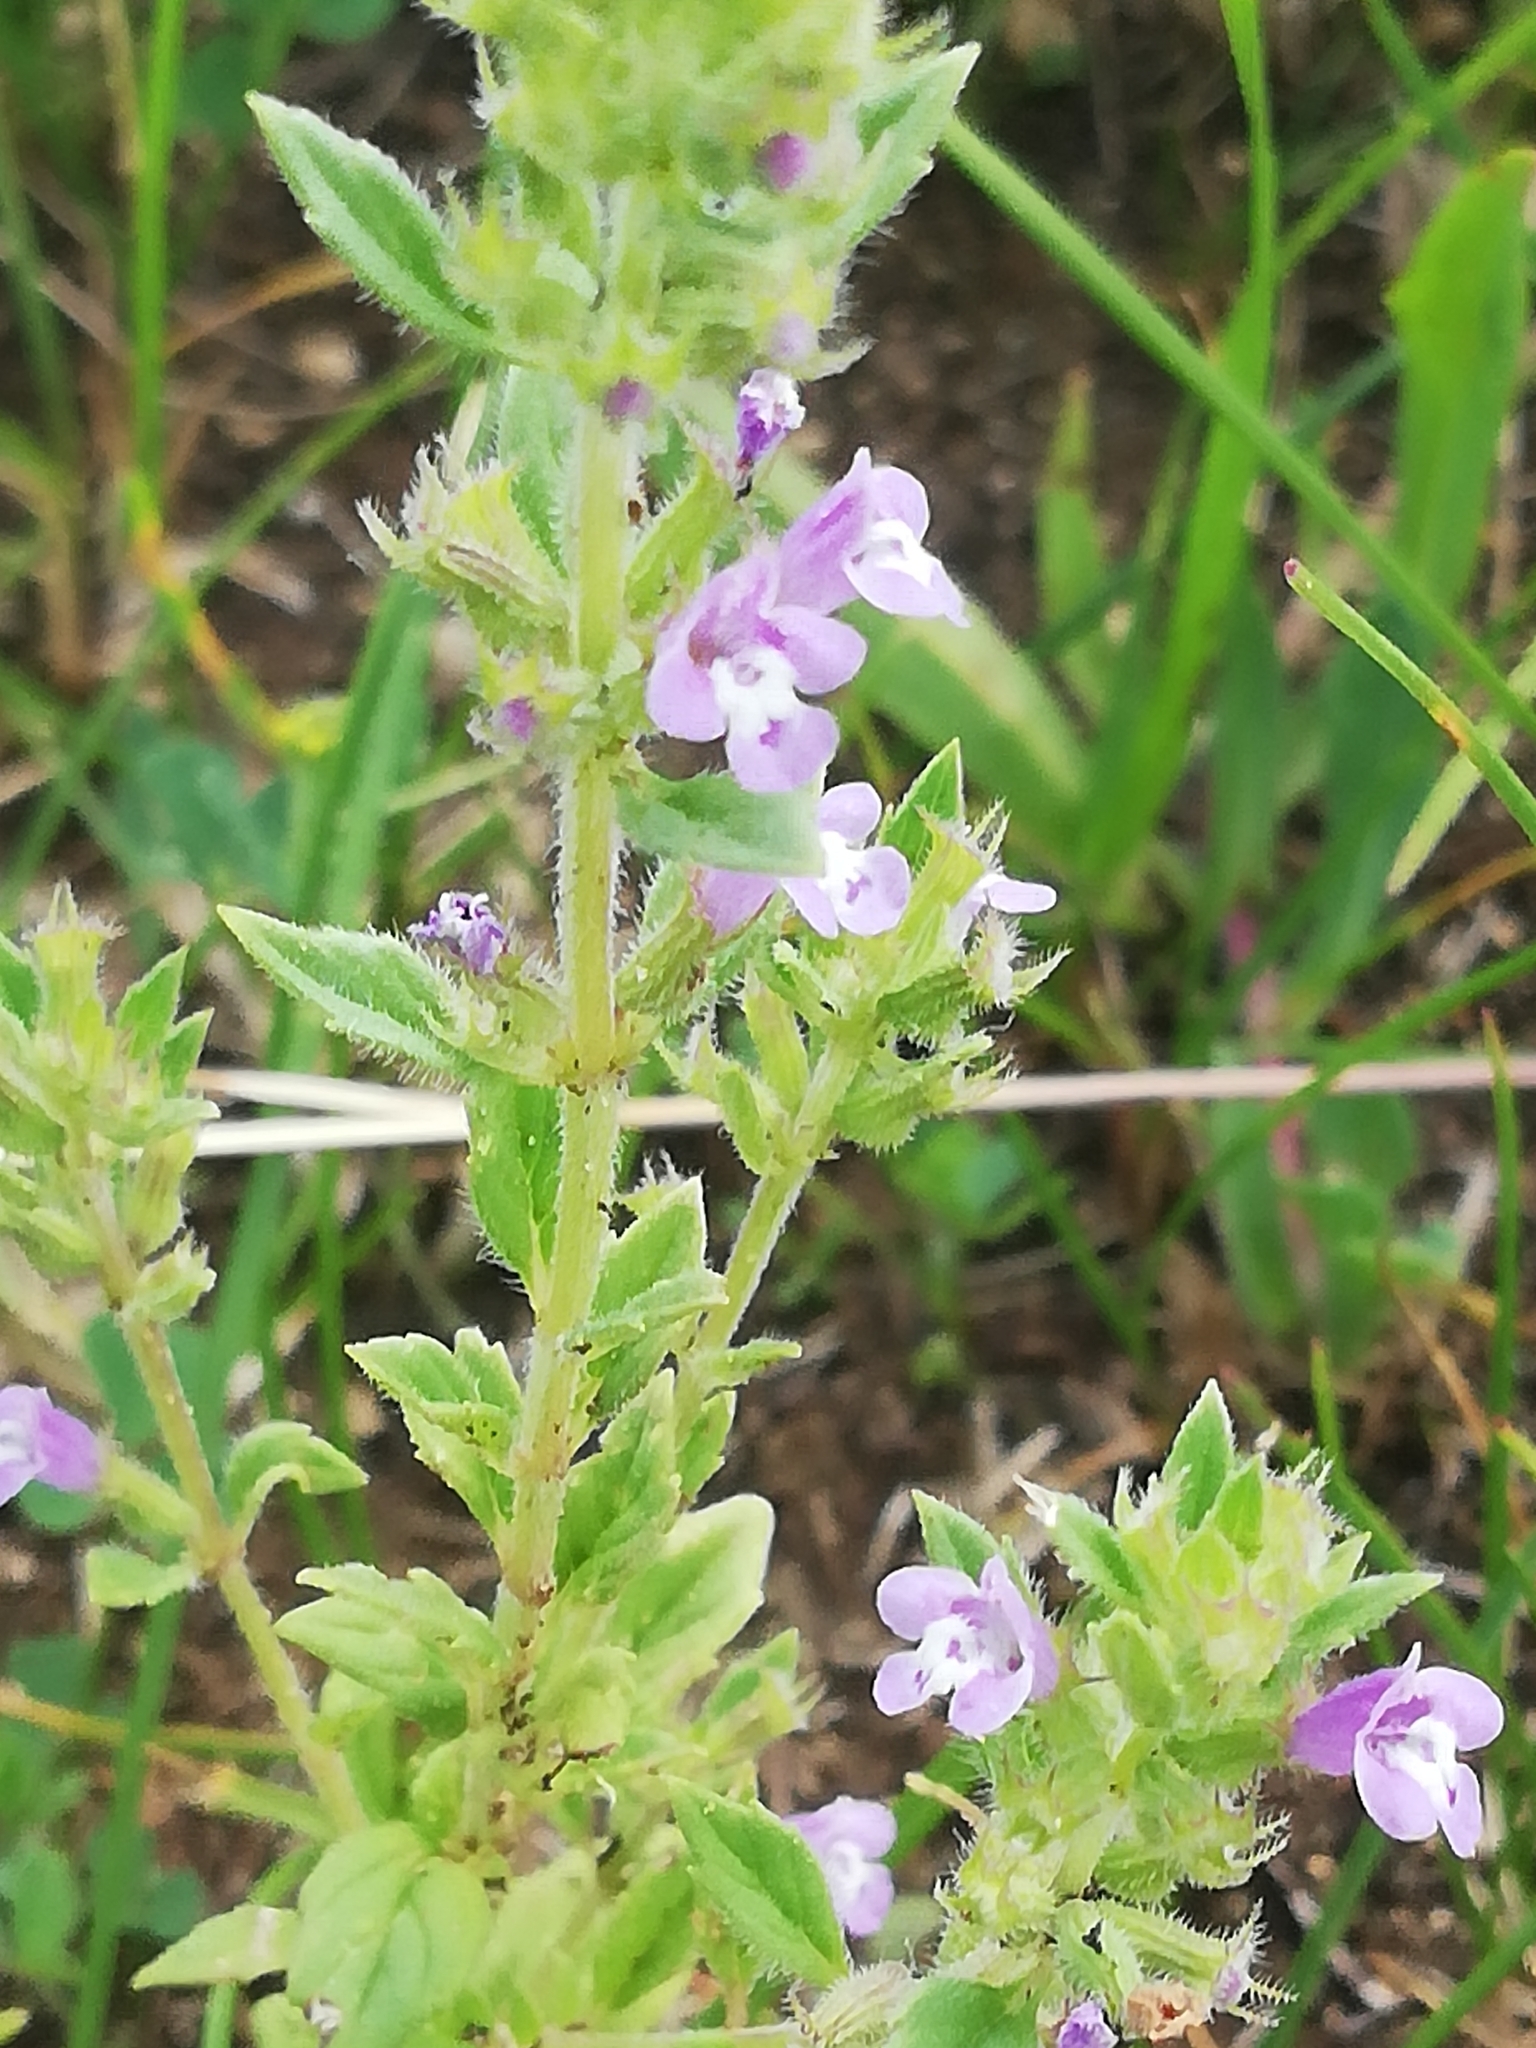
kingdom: Plantae
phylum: Tracheophyta
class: Magnoliopsida
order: Lamiales
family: Lamiaceae
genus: Clinopodium
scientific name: Clinopodium acinos
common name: Basil thyme
